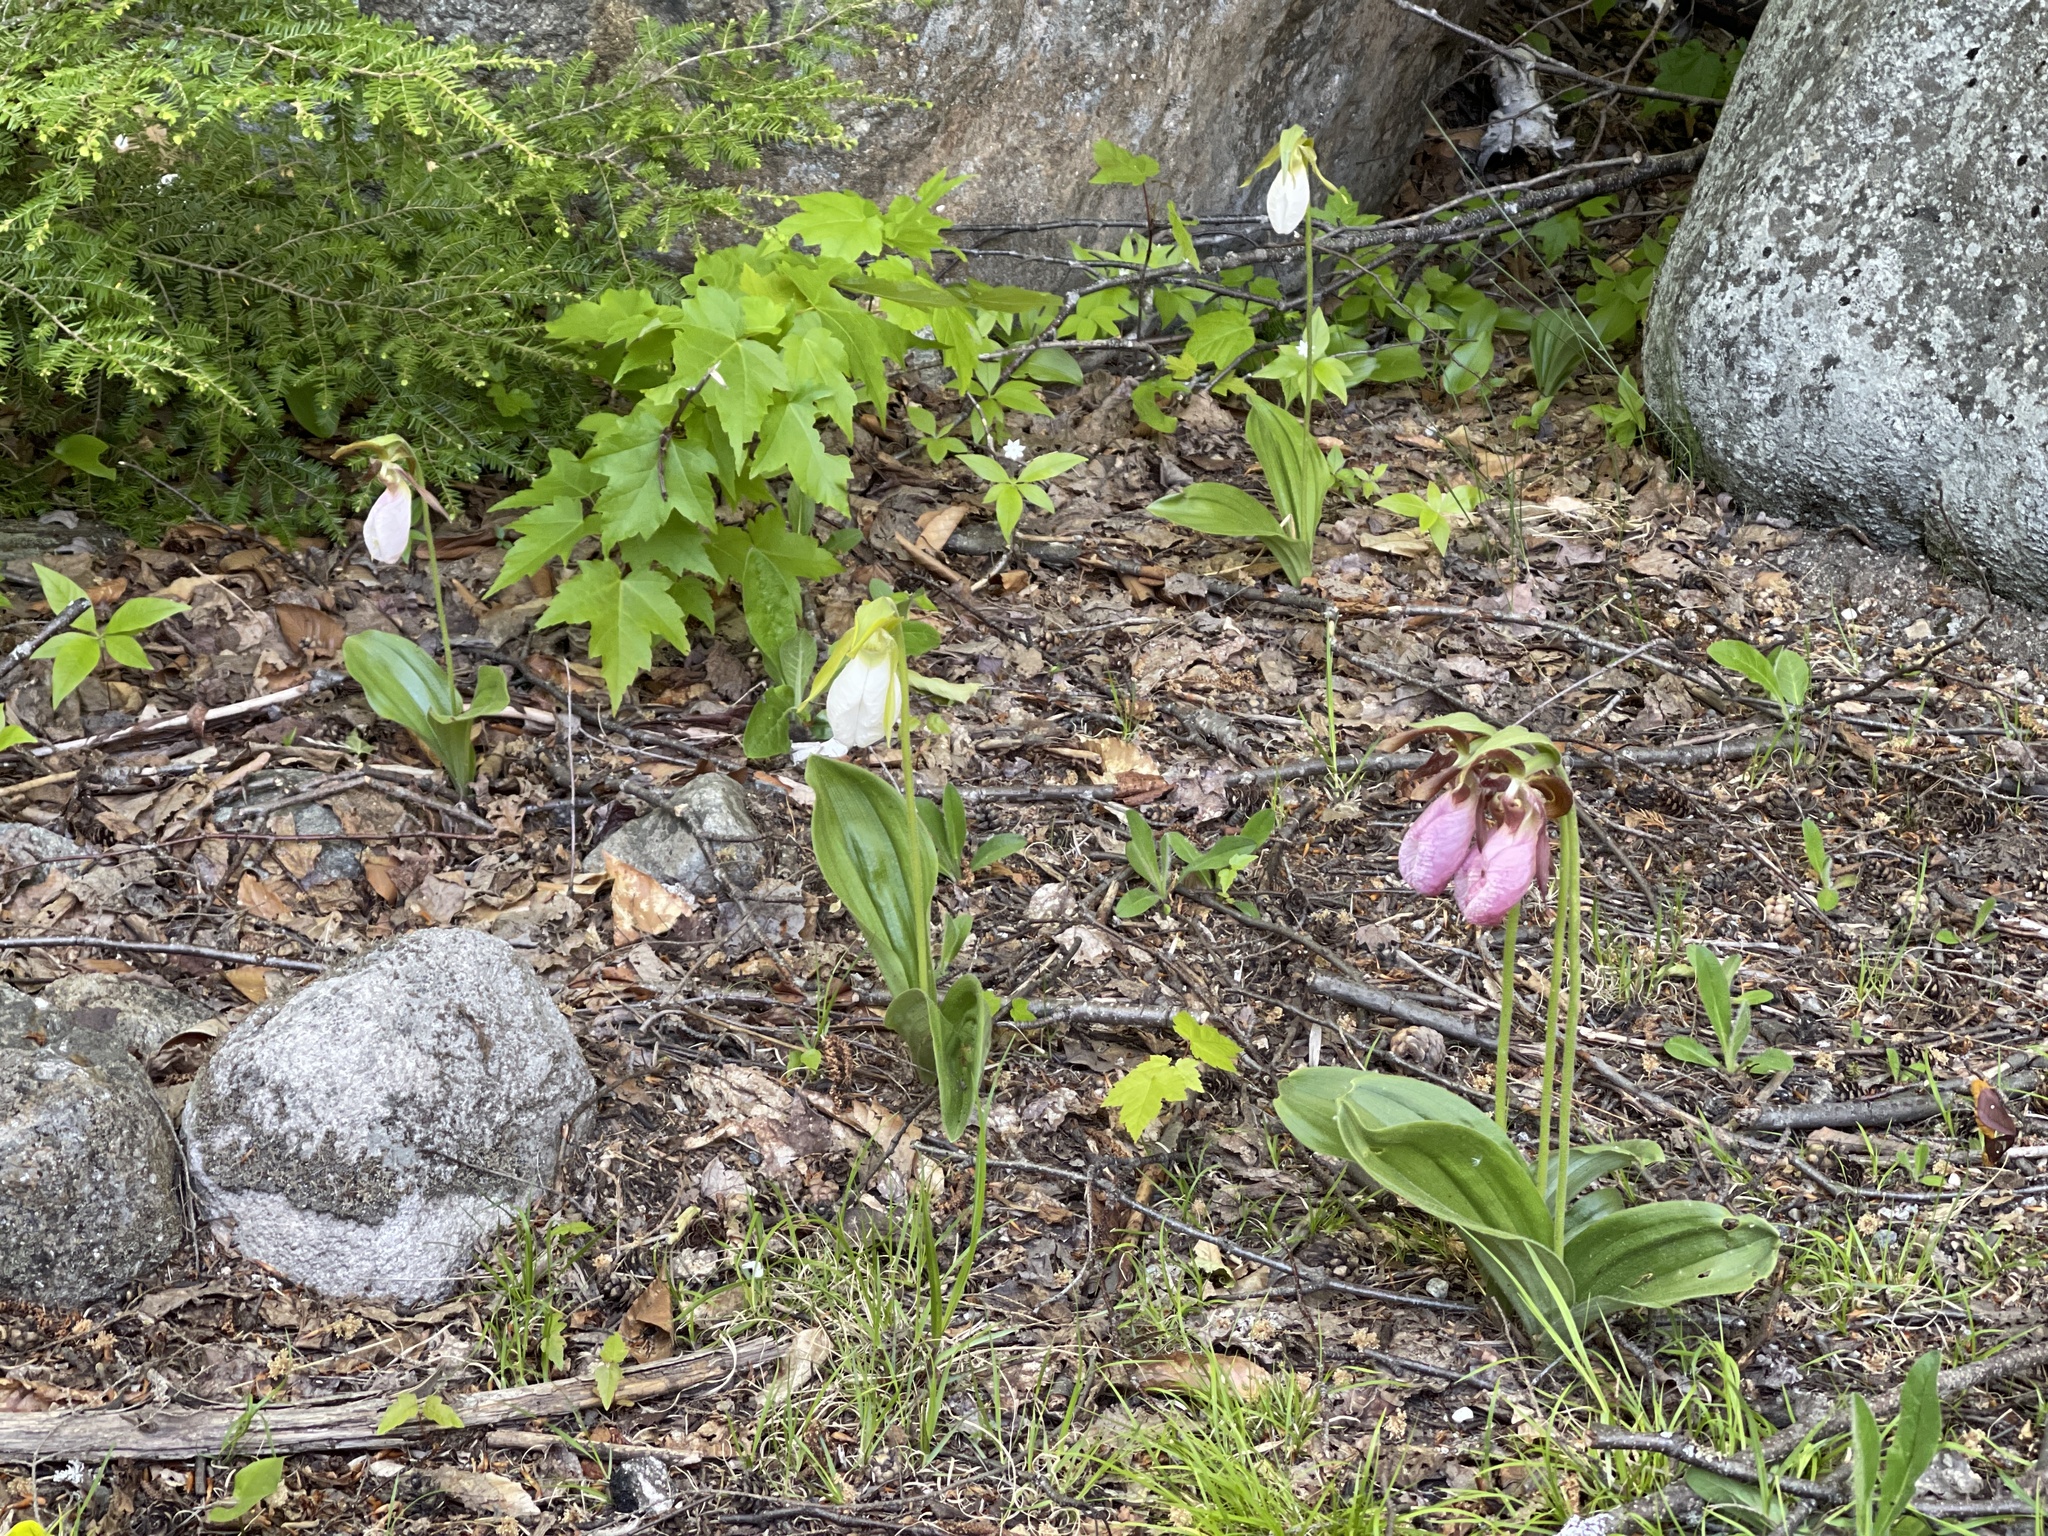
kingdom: Plantae
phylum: Tracheophyta
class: Liliopsida
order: Asparagales
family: Orchidaceae
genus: Cypripedium
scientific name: Cypripedium acaule
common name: Pink lady's-slipper
